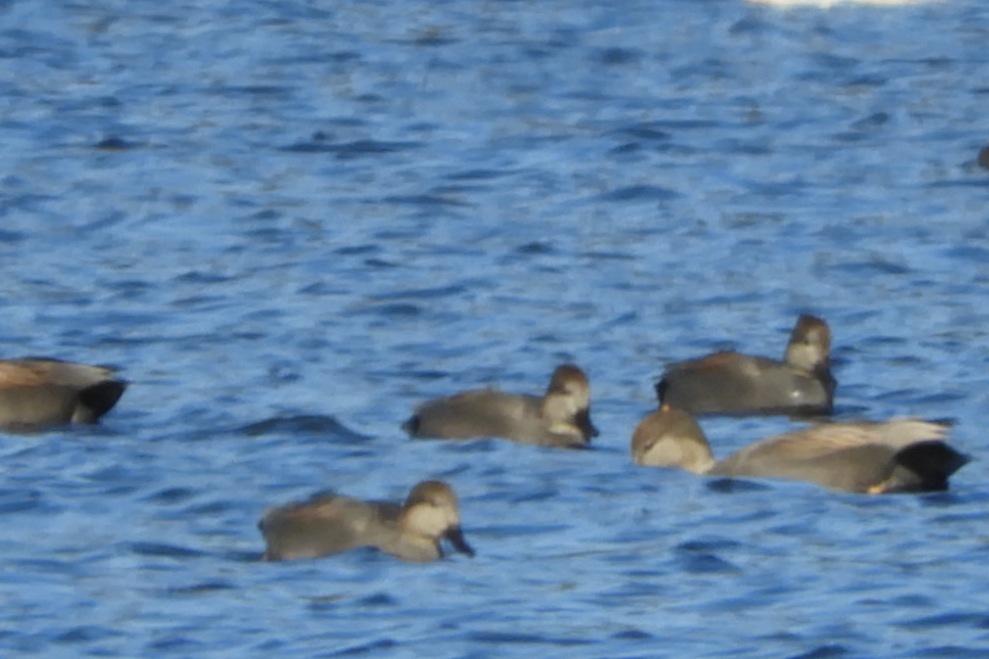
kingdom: Animalia
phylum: Chordata
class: Aves
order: Anseriformes
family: Anatidae
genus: Mareca
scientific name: Mareca strepera
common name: Gadwall
